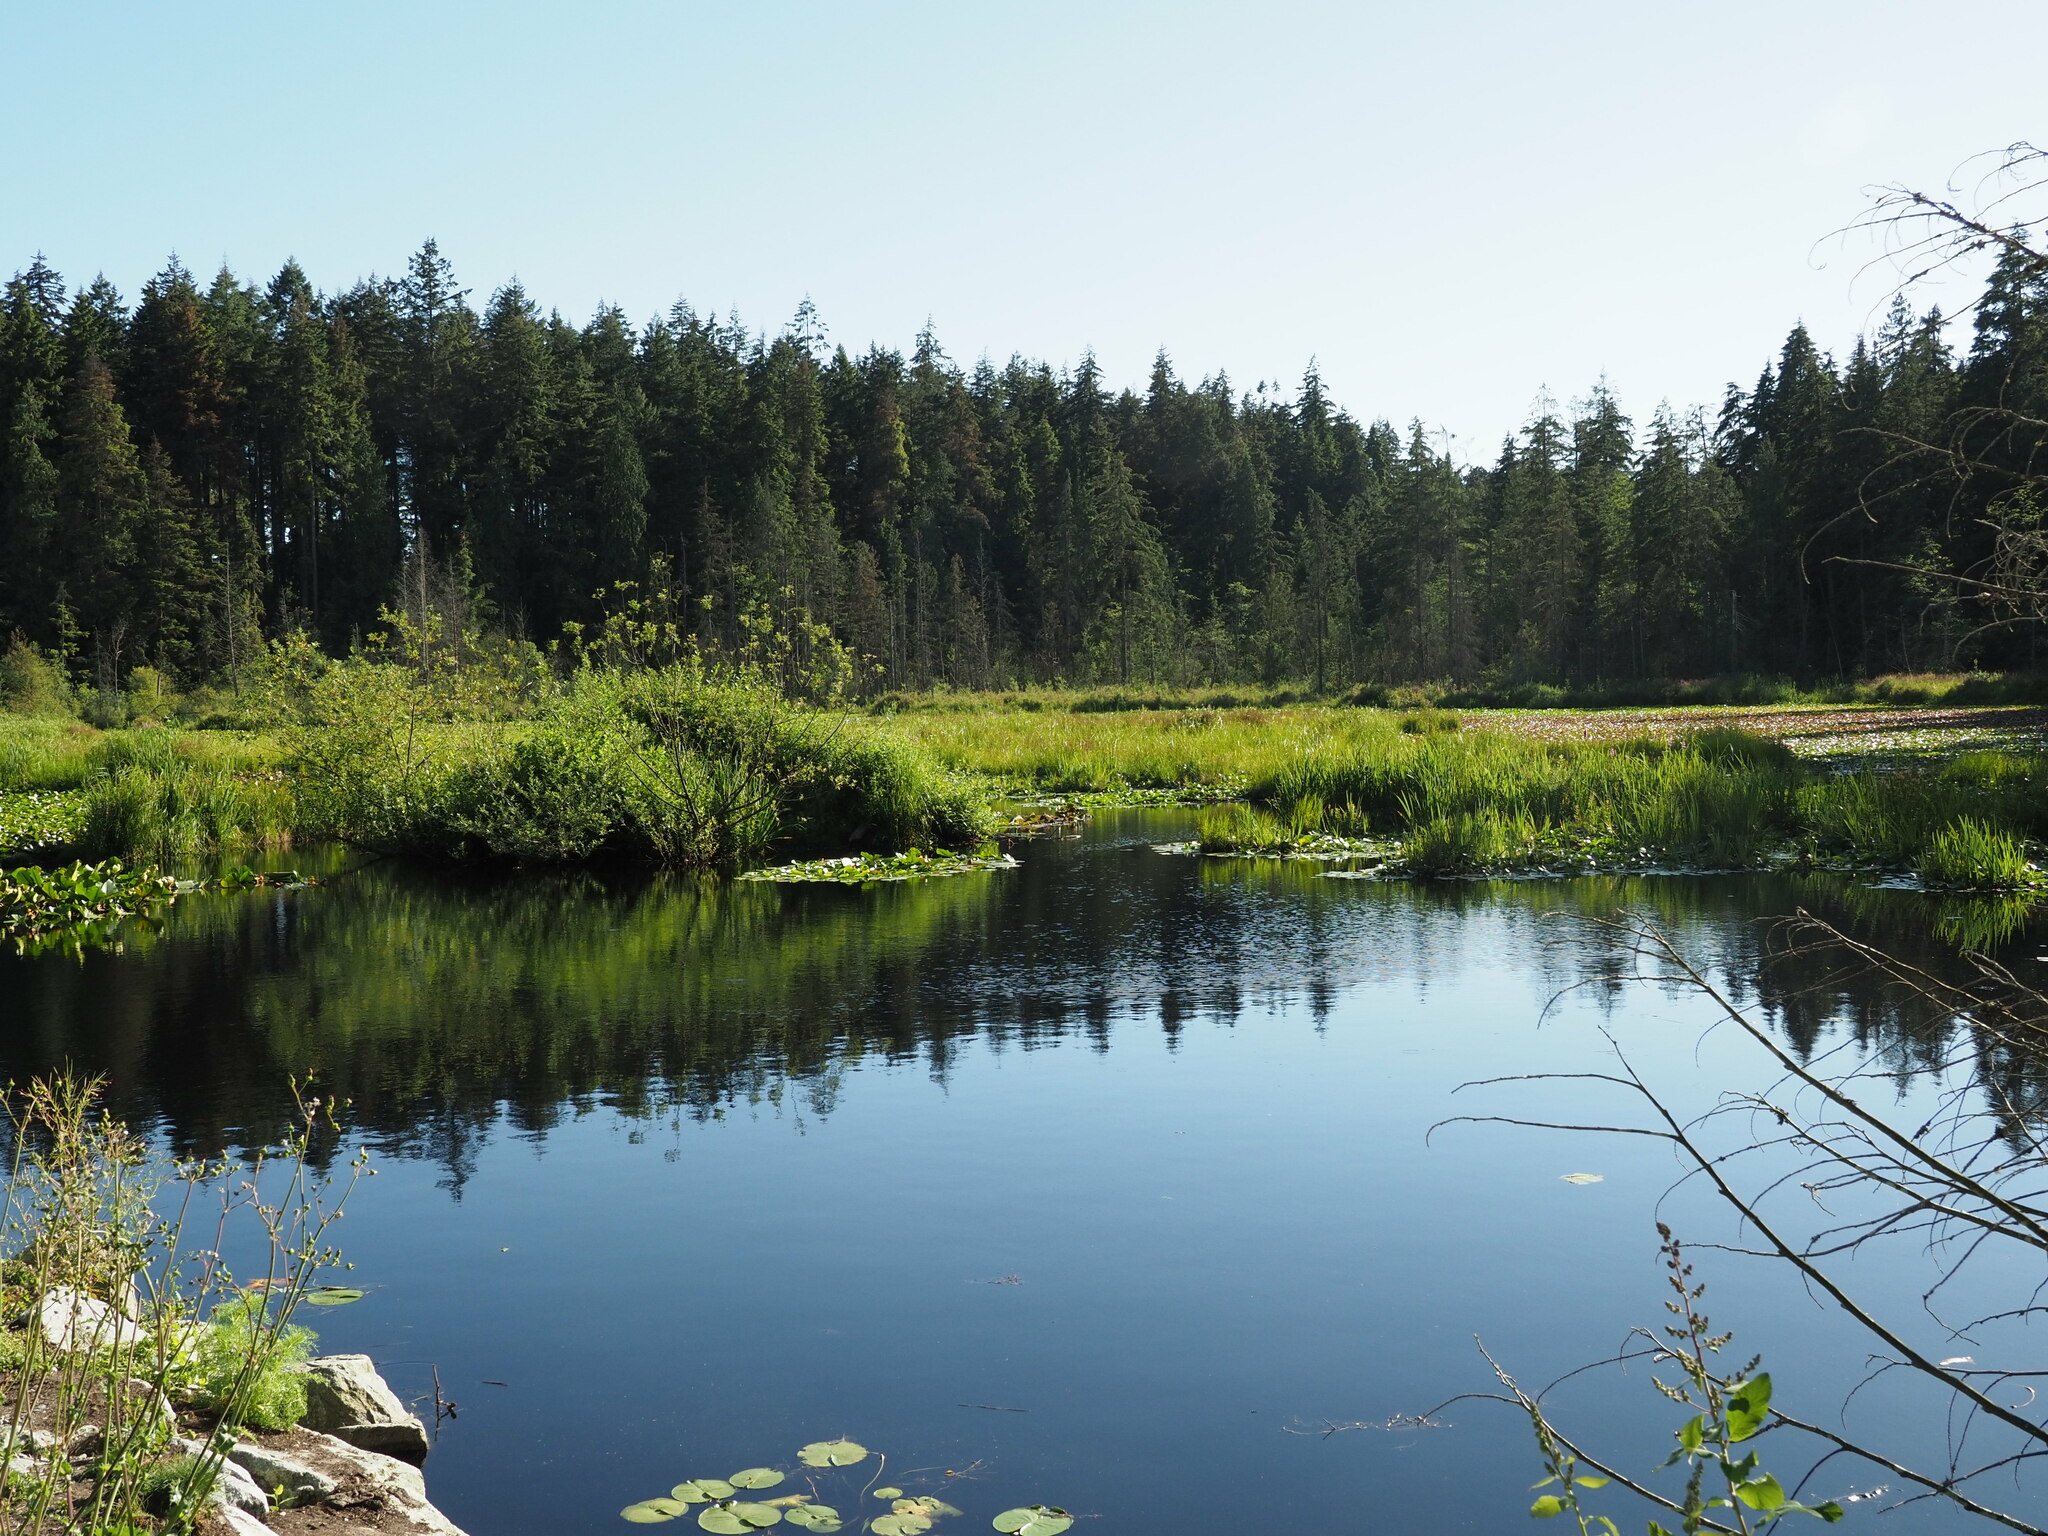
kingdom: Animalia
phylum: Chordata
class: Mammalia
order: Rodentia
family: Castoridae
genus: Castor
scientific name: Castor canadensis
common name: American beaver
